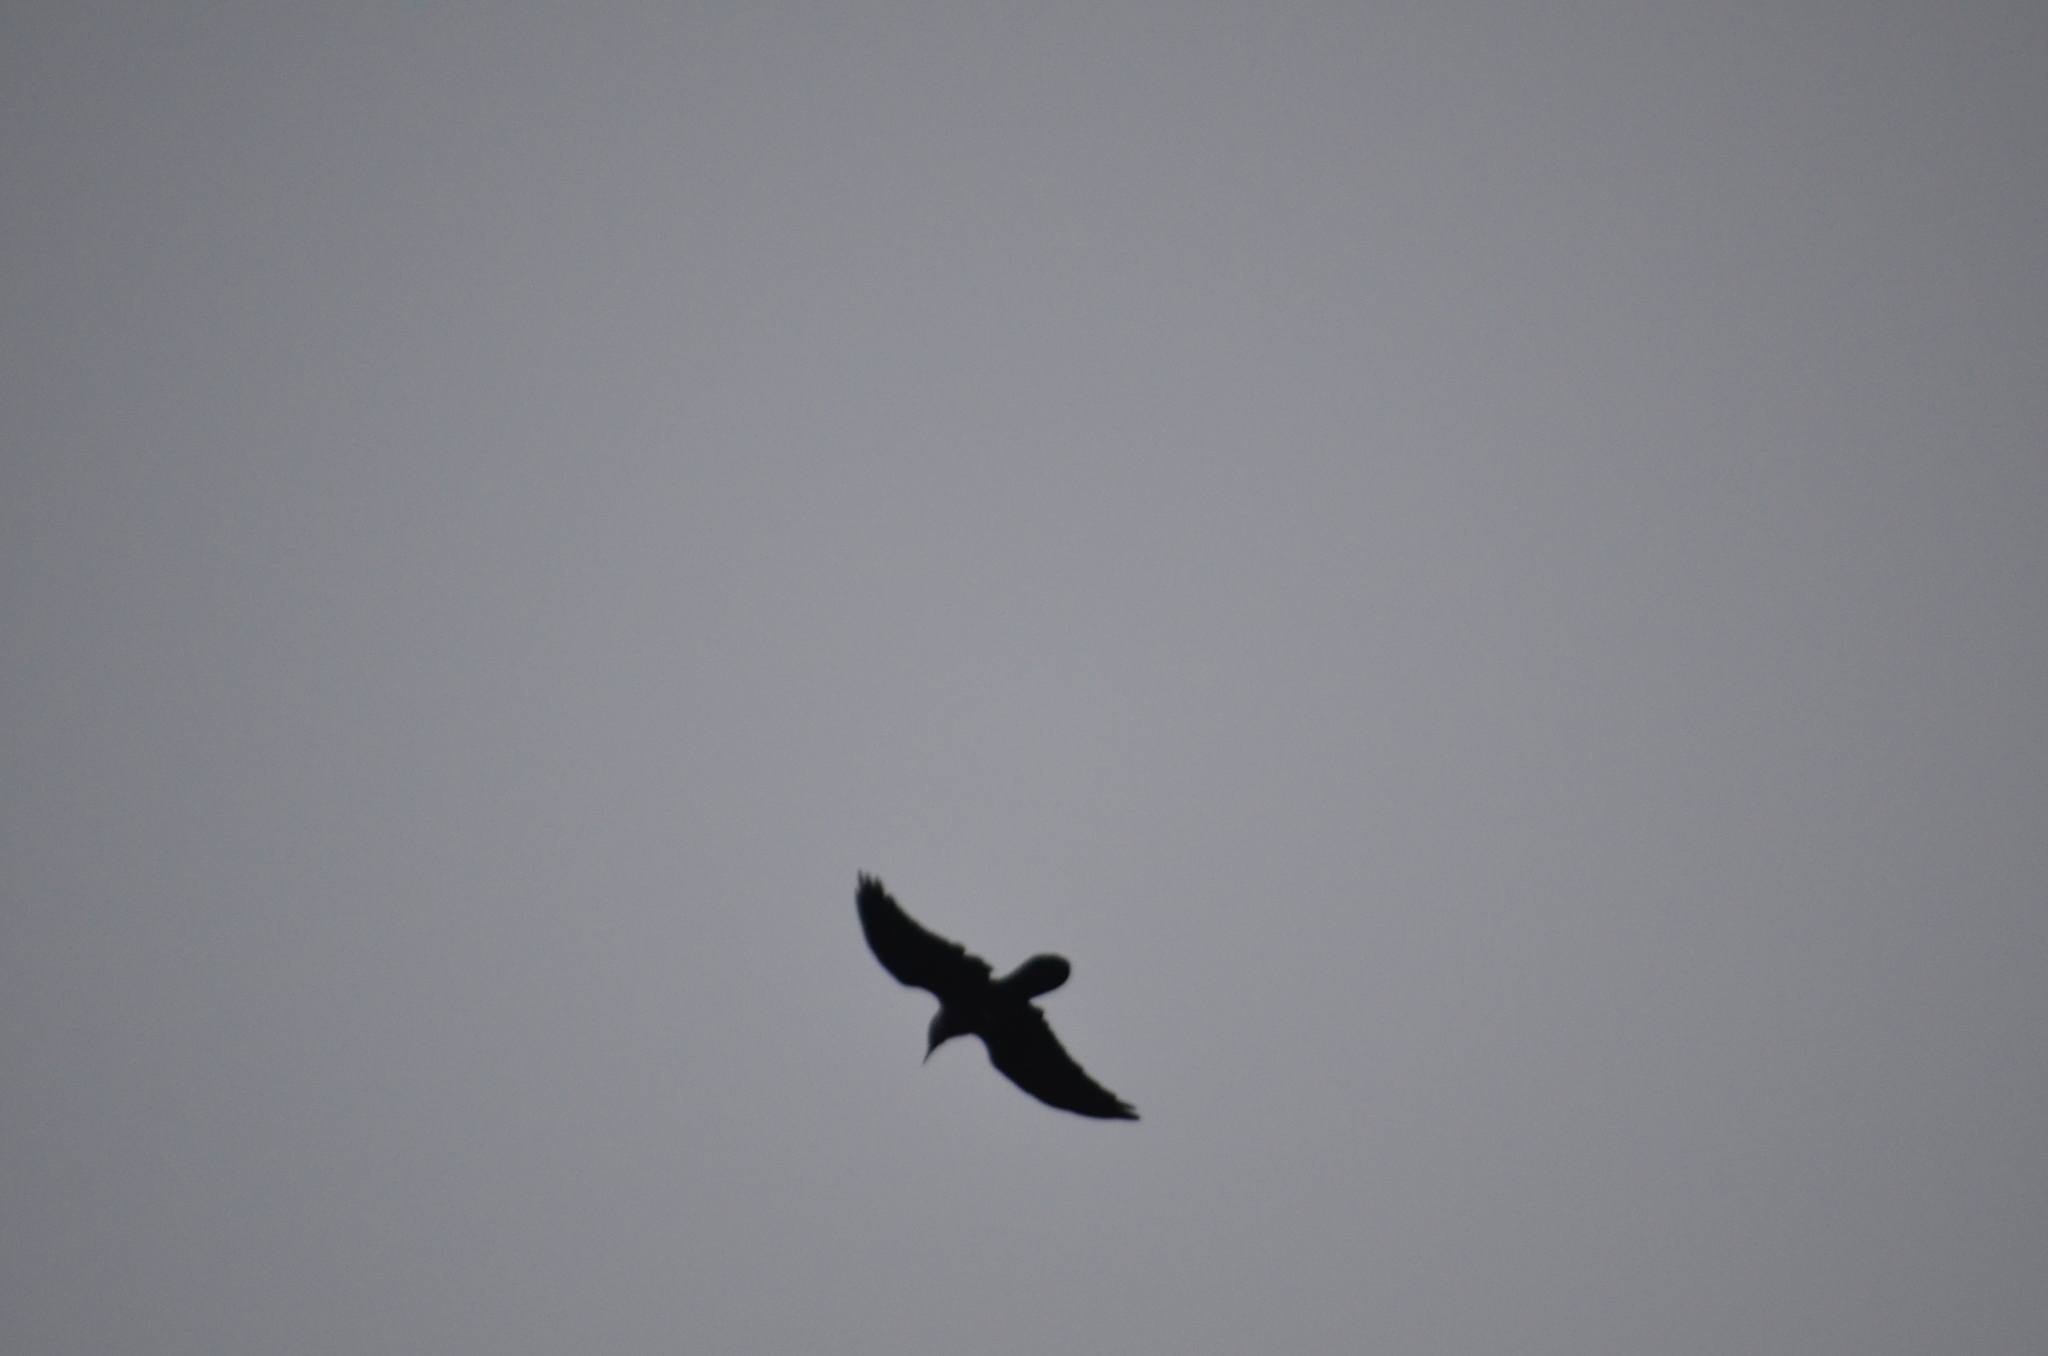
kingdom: Animalia
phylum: Chordata
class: Aves
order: Passeriformes
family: Corvidae
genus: Corvus
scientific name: Corvus corax
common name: Common raven
